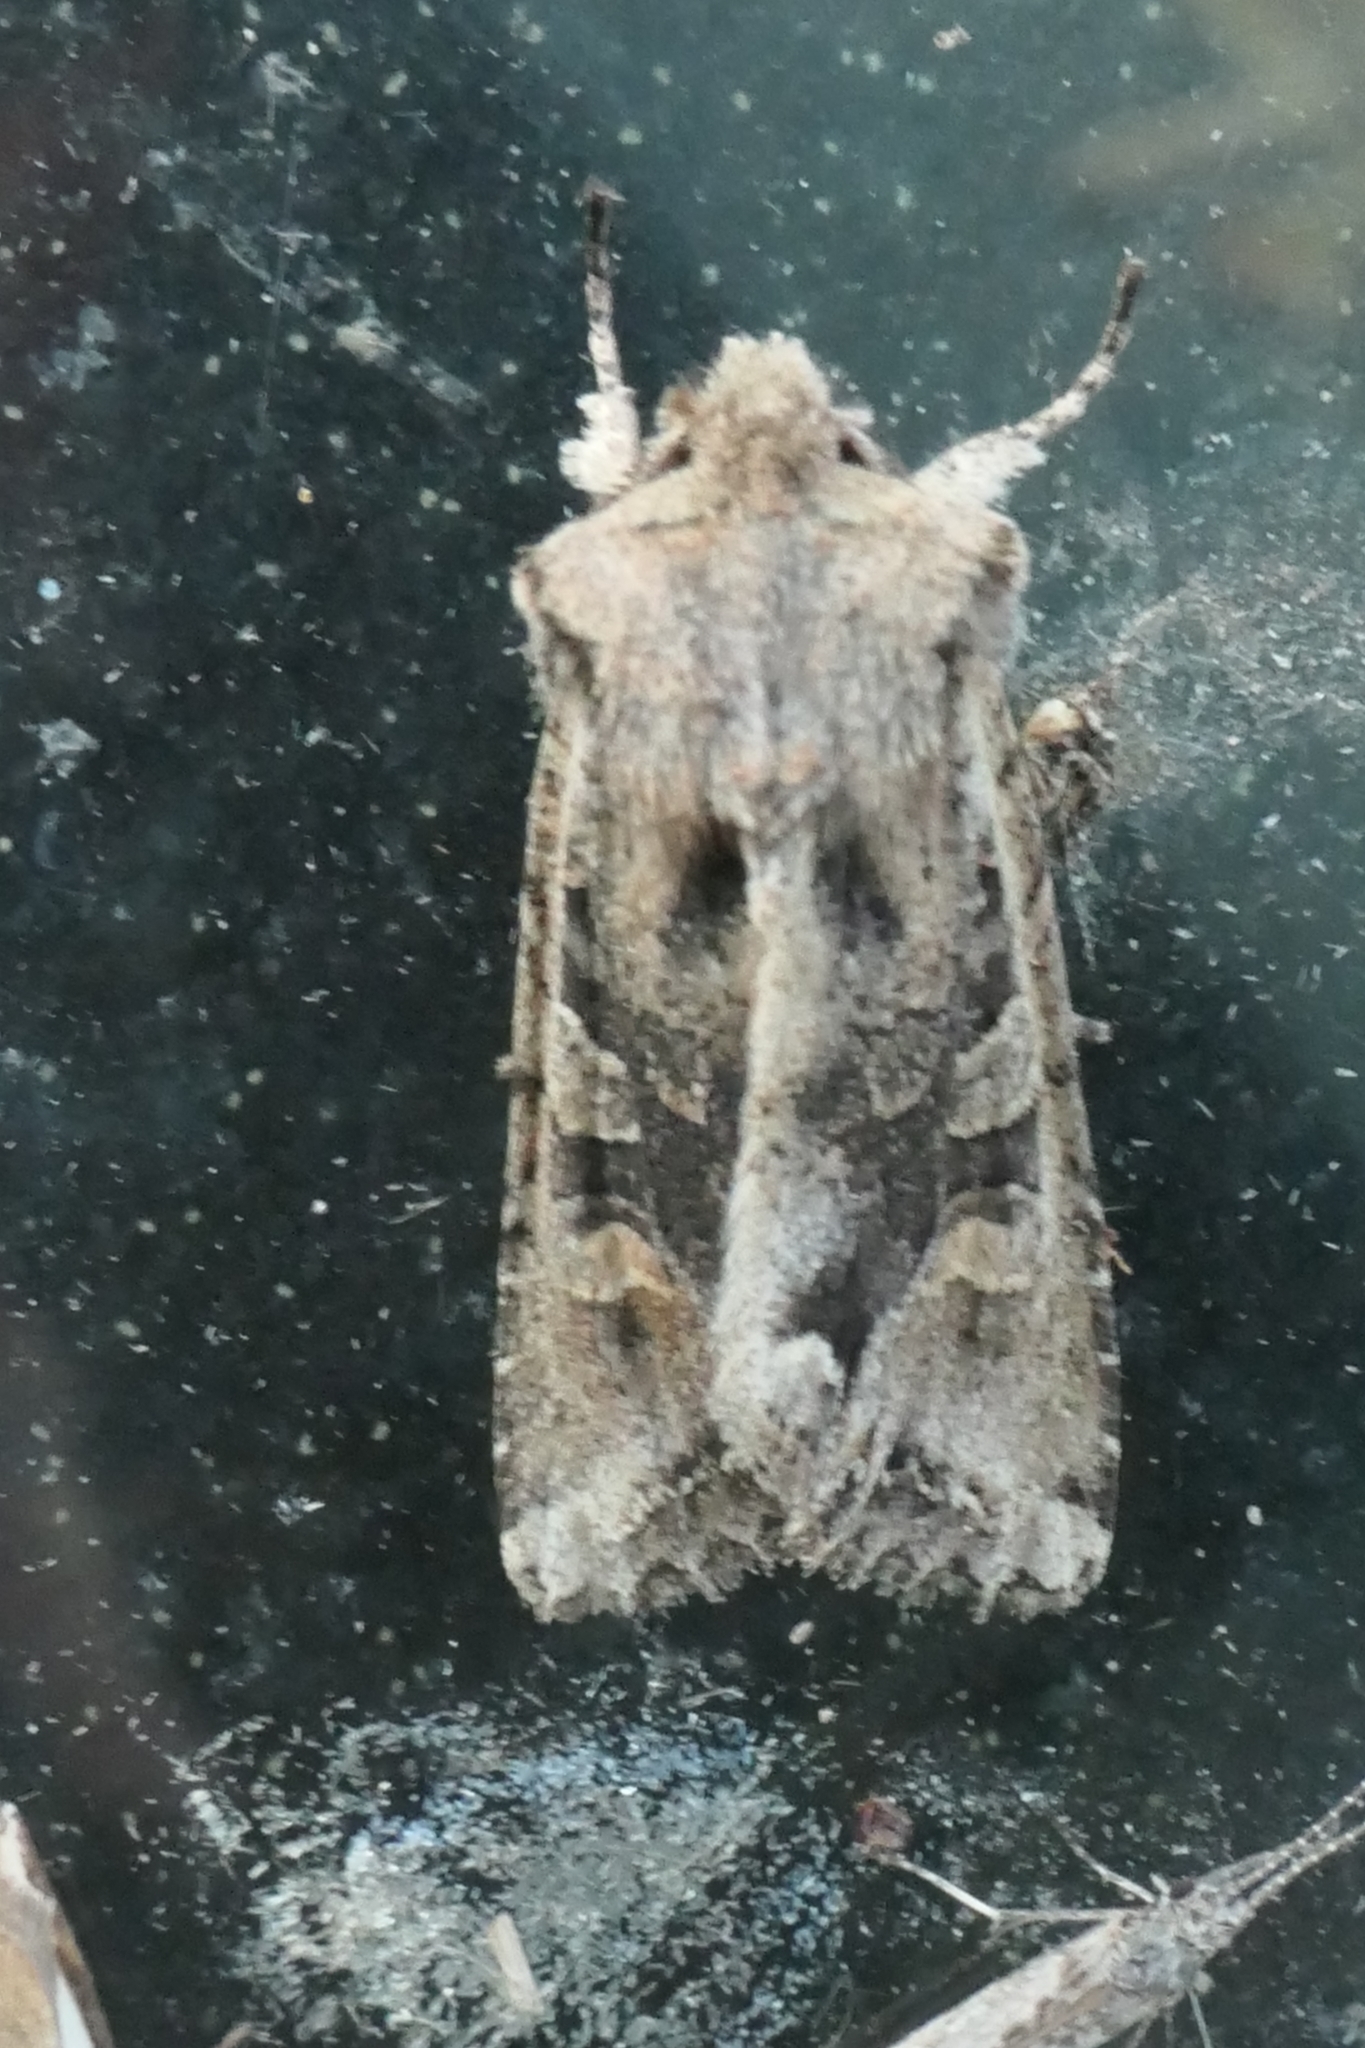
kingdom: Animalia
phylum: Arthropoda
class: Insecta
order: Lepidoptera
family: Noctuidae
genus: Ichneutica
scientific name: Ichneutica
